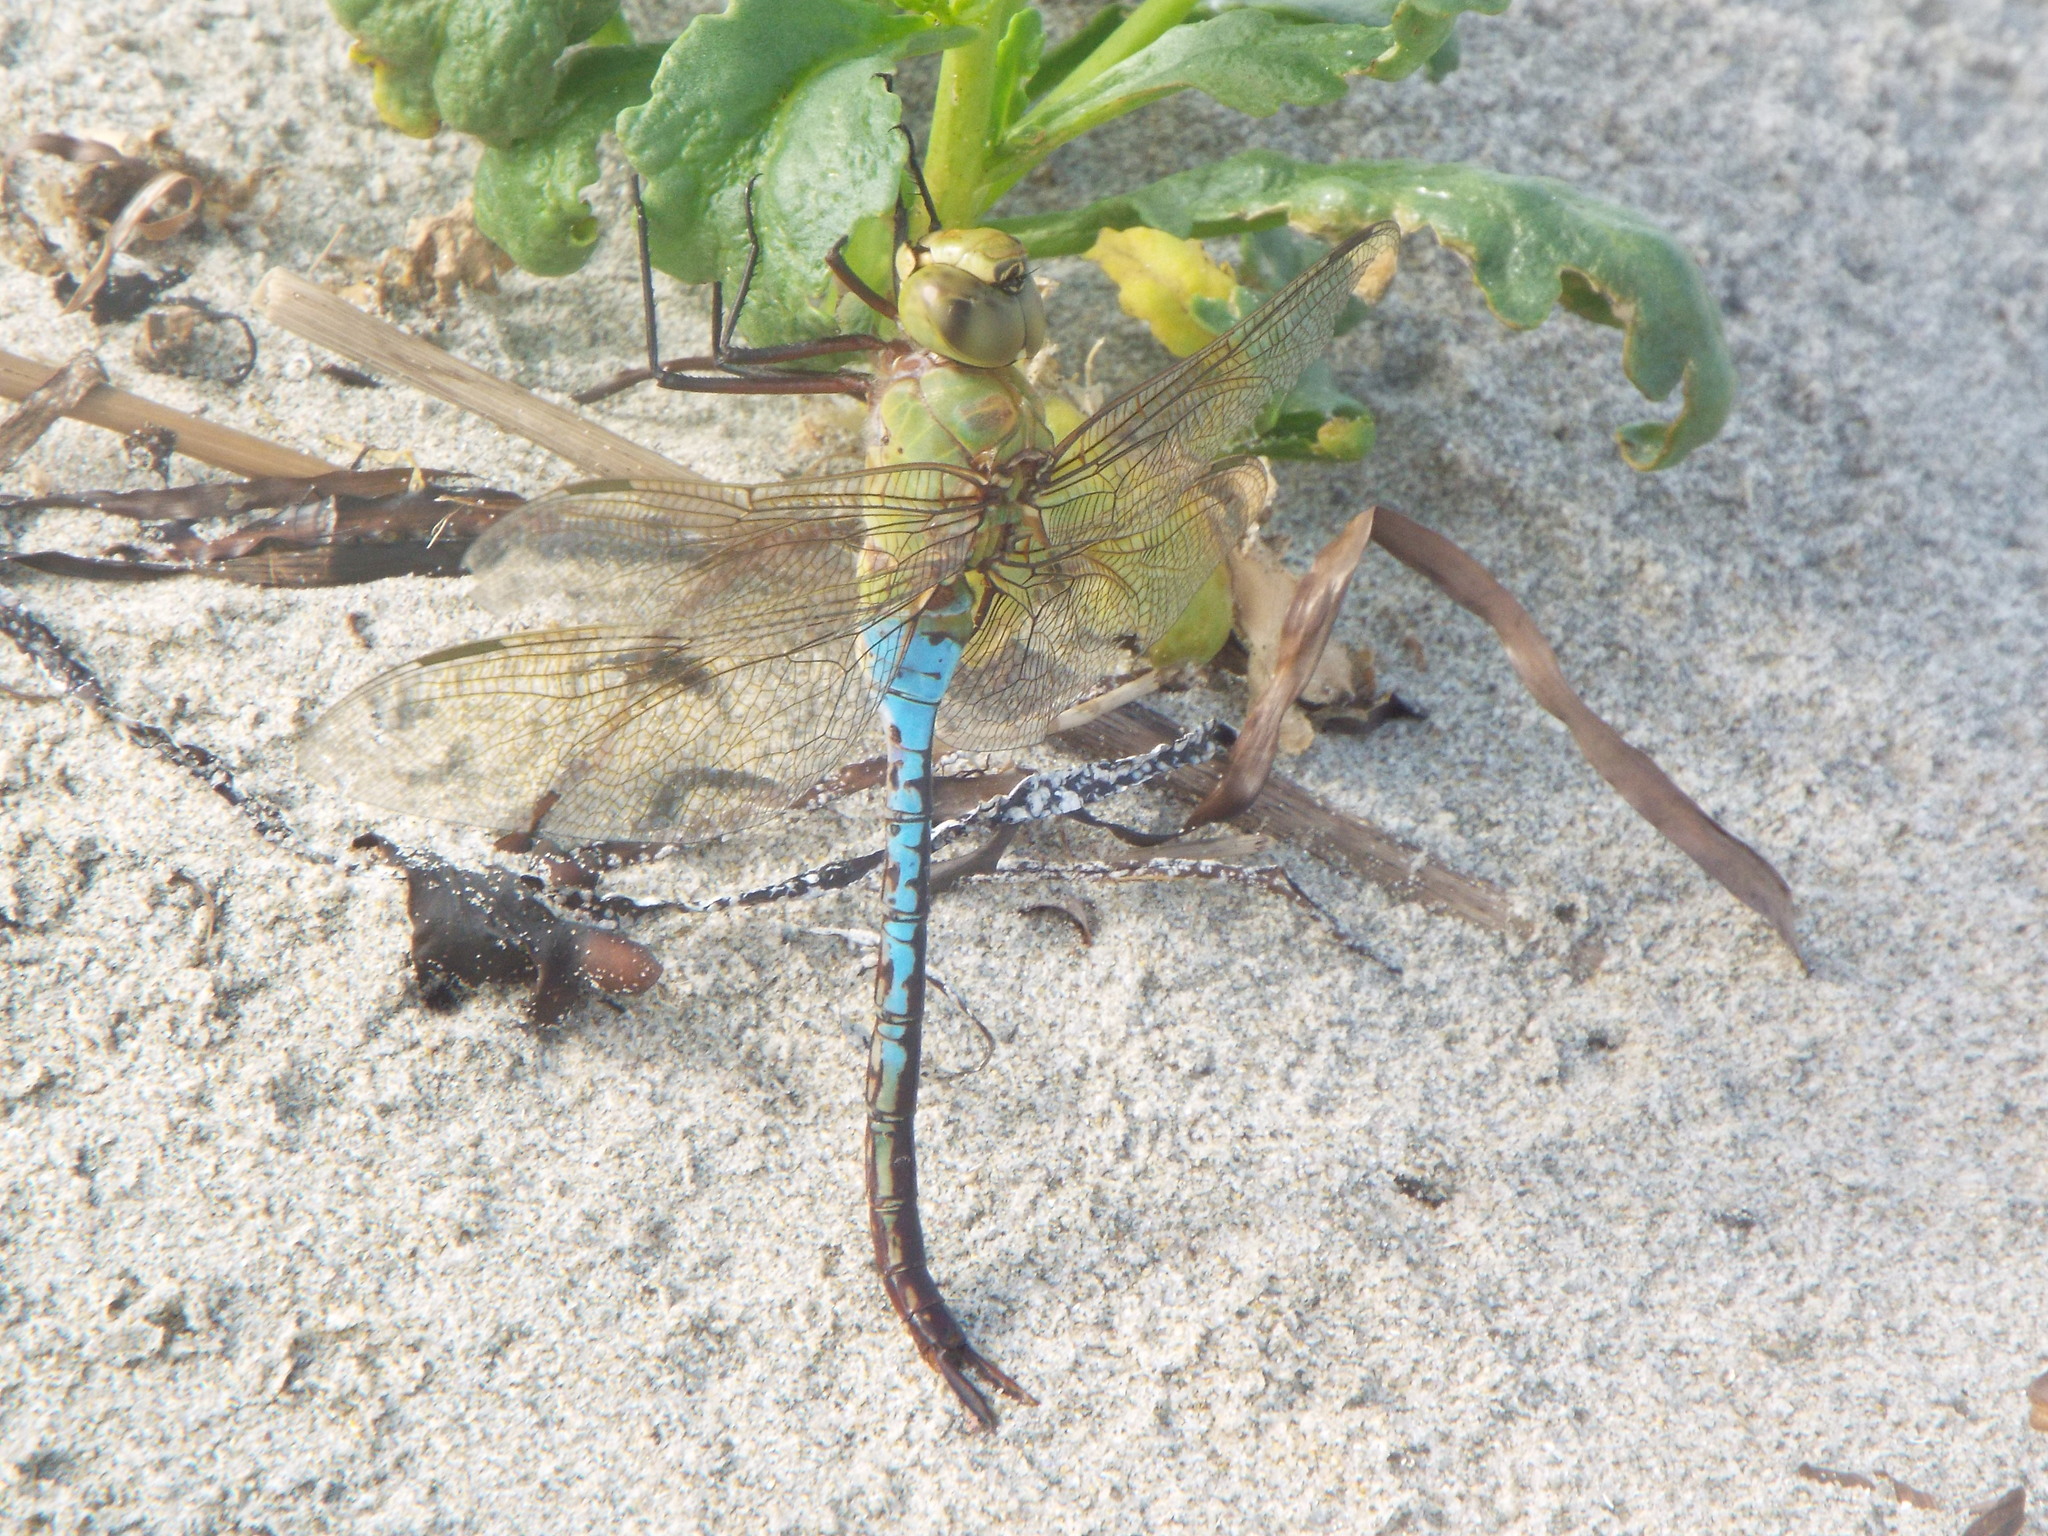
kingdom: Animalia
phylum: Arthropoda
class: Insecta
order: Odonata
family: Aeshnidae
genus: Anax
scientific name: Anax junius
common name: Common green darner
